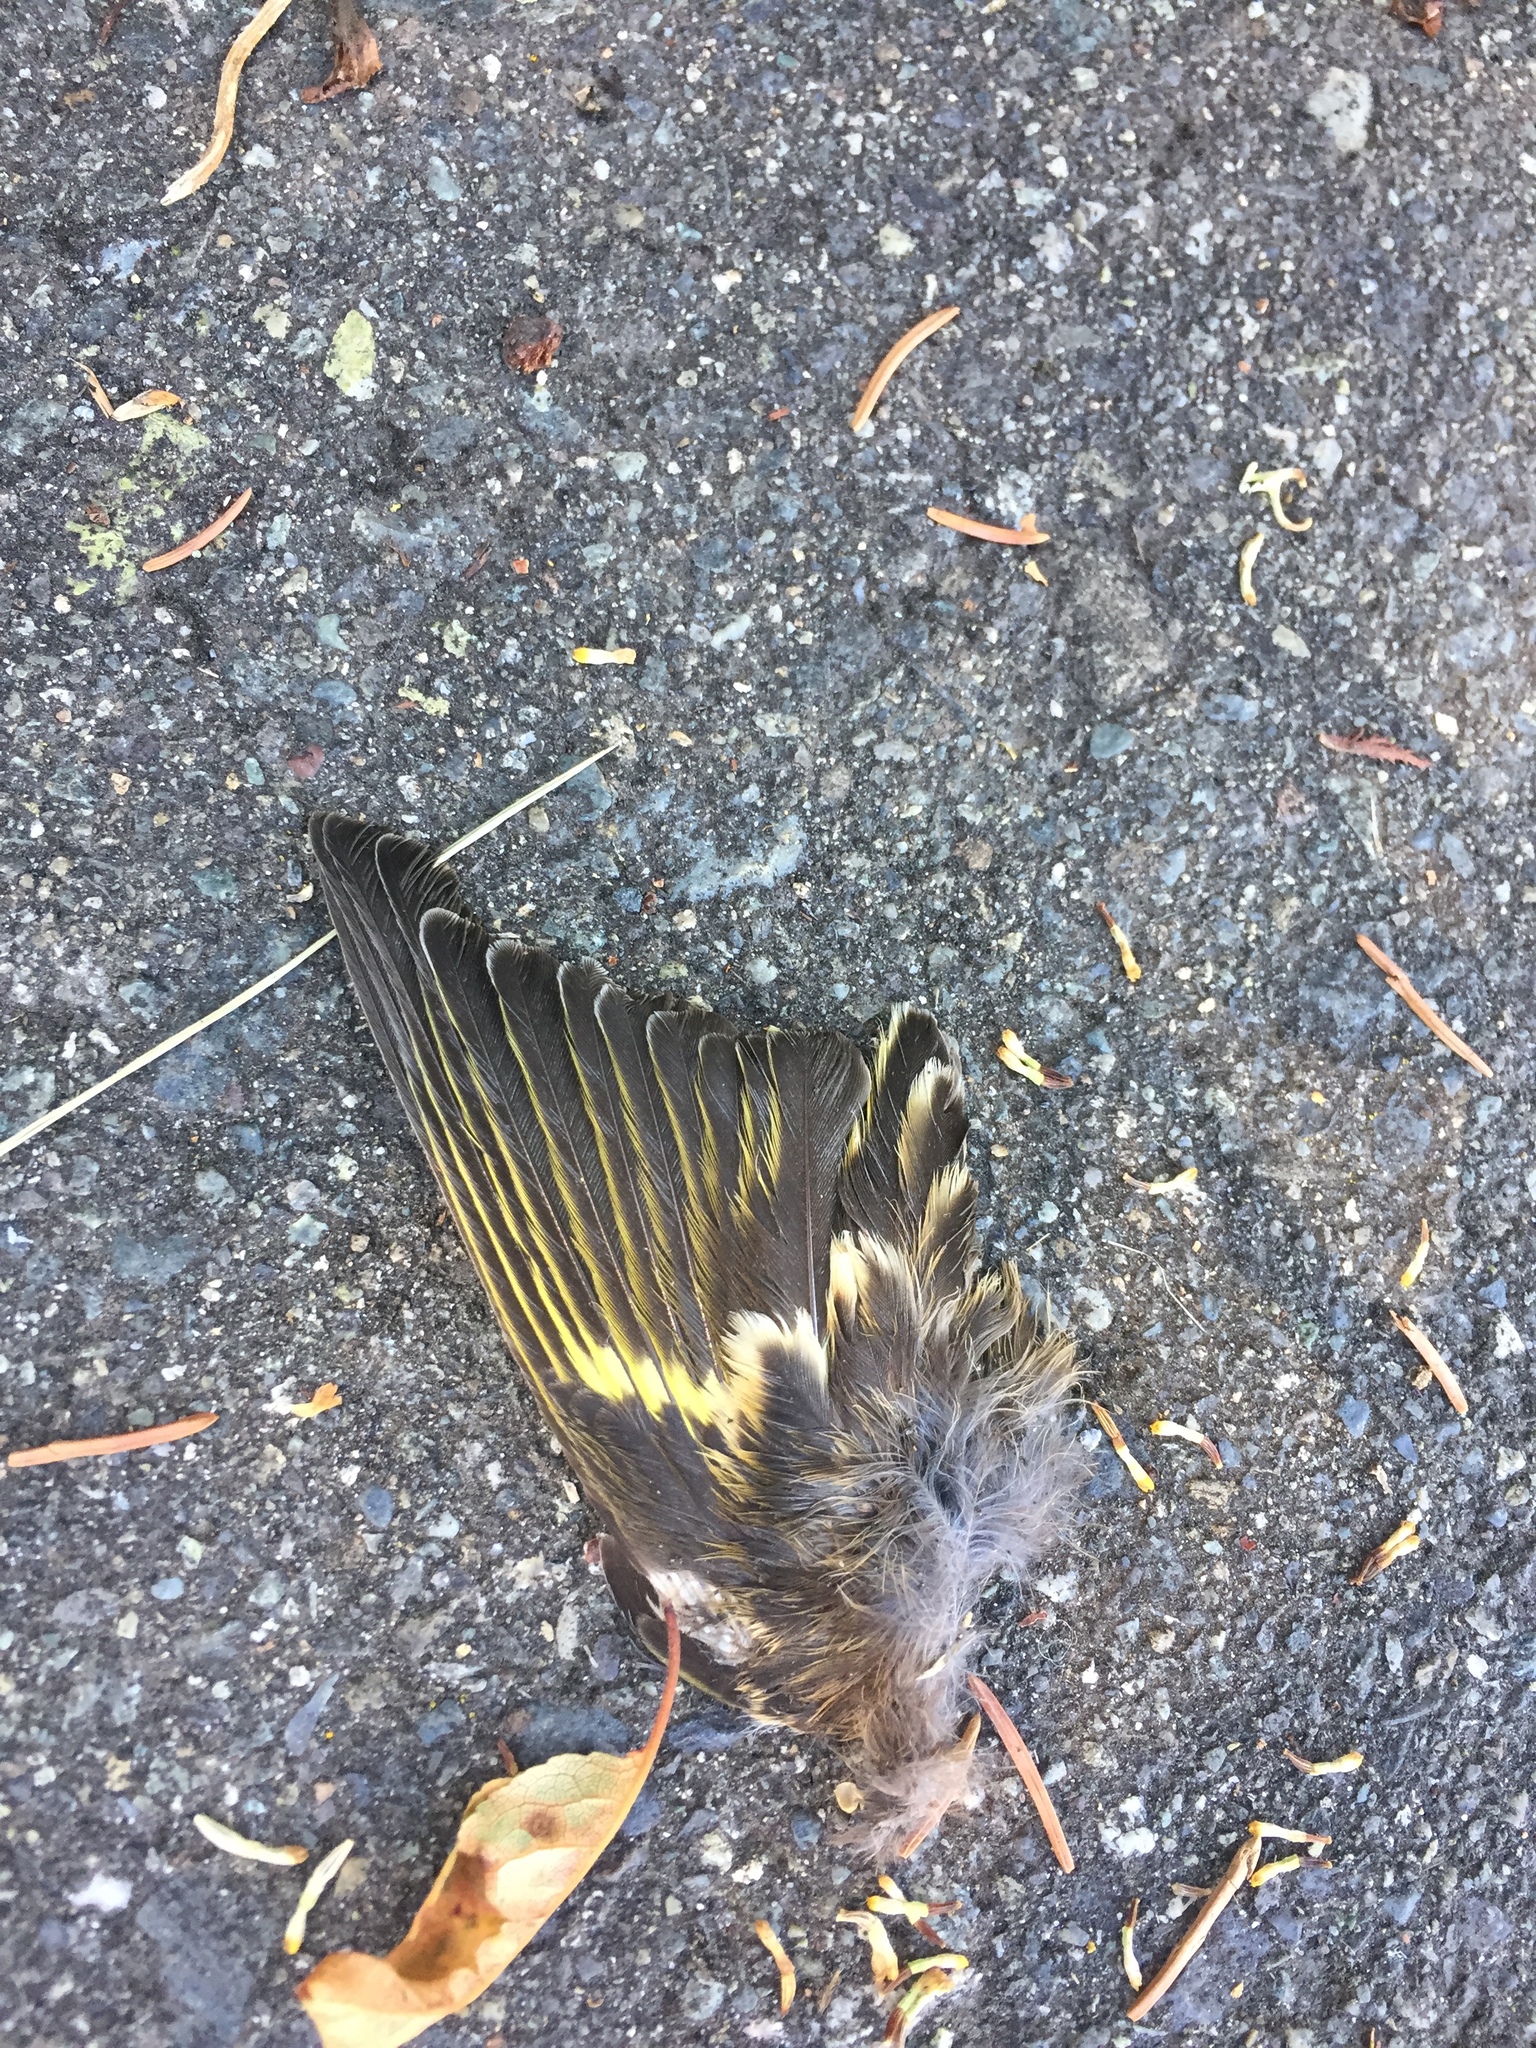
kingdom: Animalia
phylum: Chordata
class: Aves
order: Passeriformes
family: Fringillidae
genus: Spinus
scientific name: Spinus pinus
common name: Pine siskin
